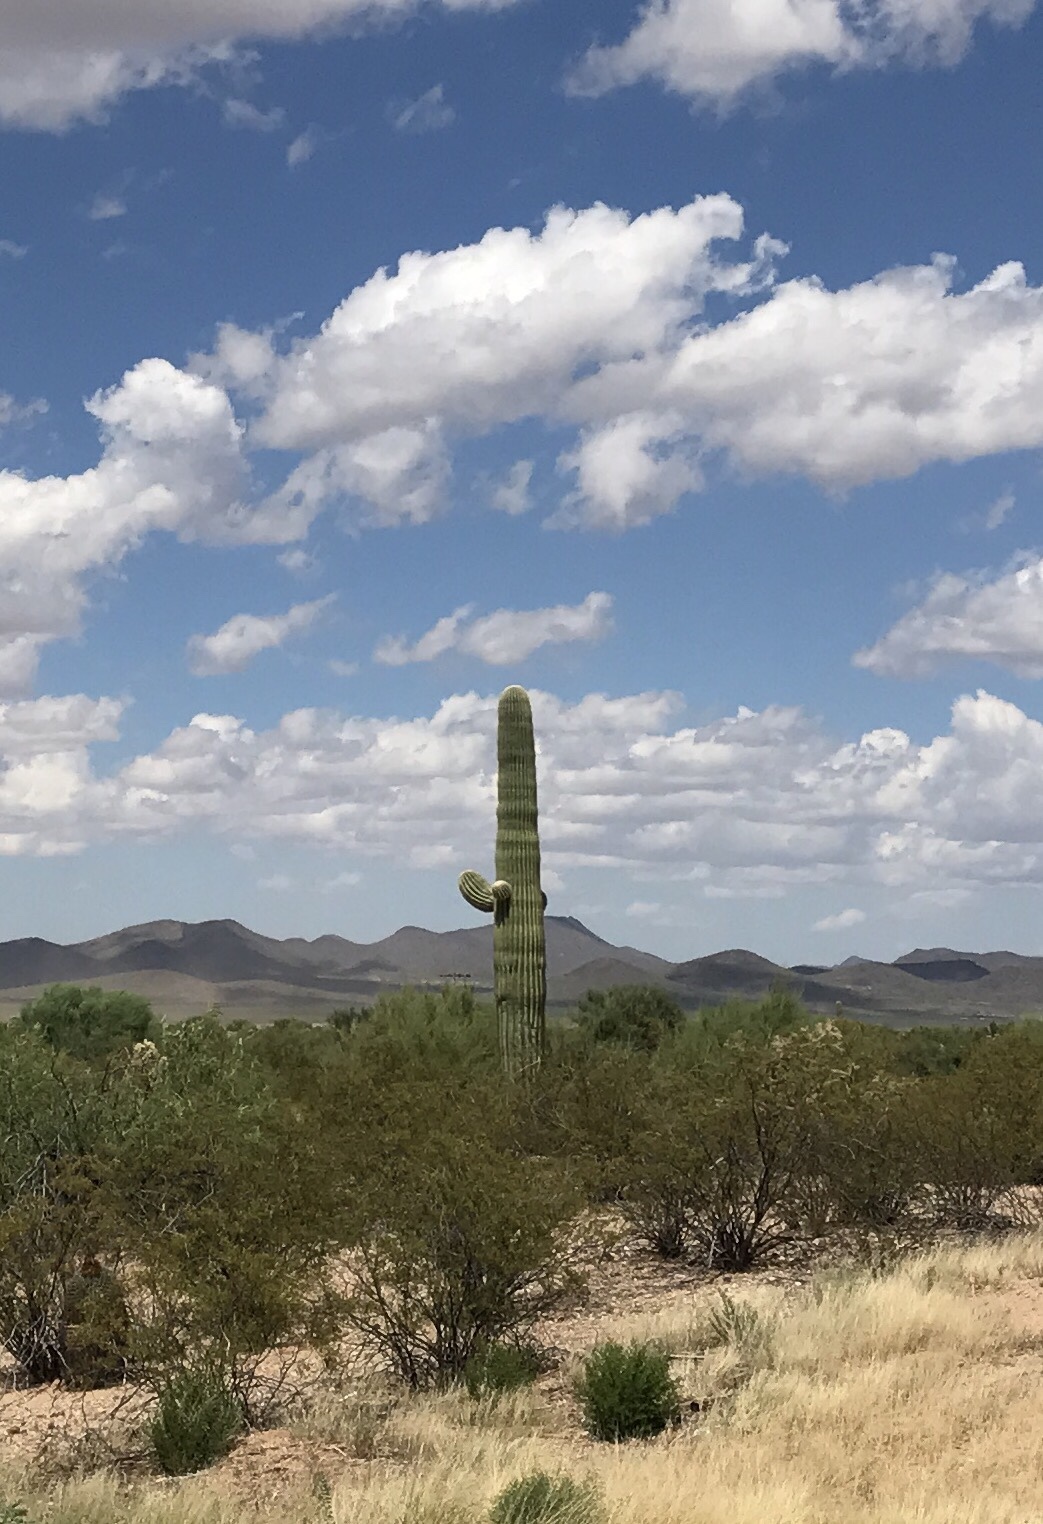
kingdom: Plantae
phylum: Tracheophyta
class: Magnoliopsida
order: Caryophyllales
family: Cactaceae
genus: Carnegiea
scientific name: Carnegiea gigantea
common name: Saguaro
